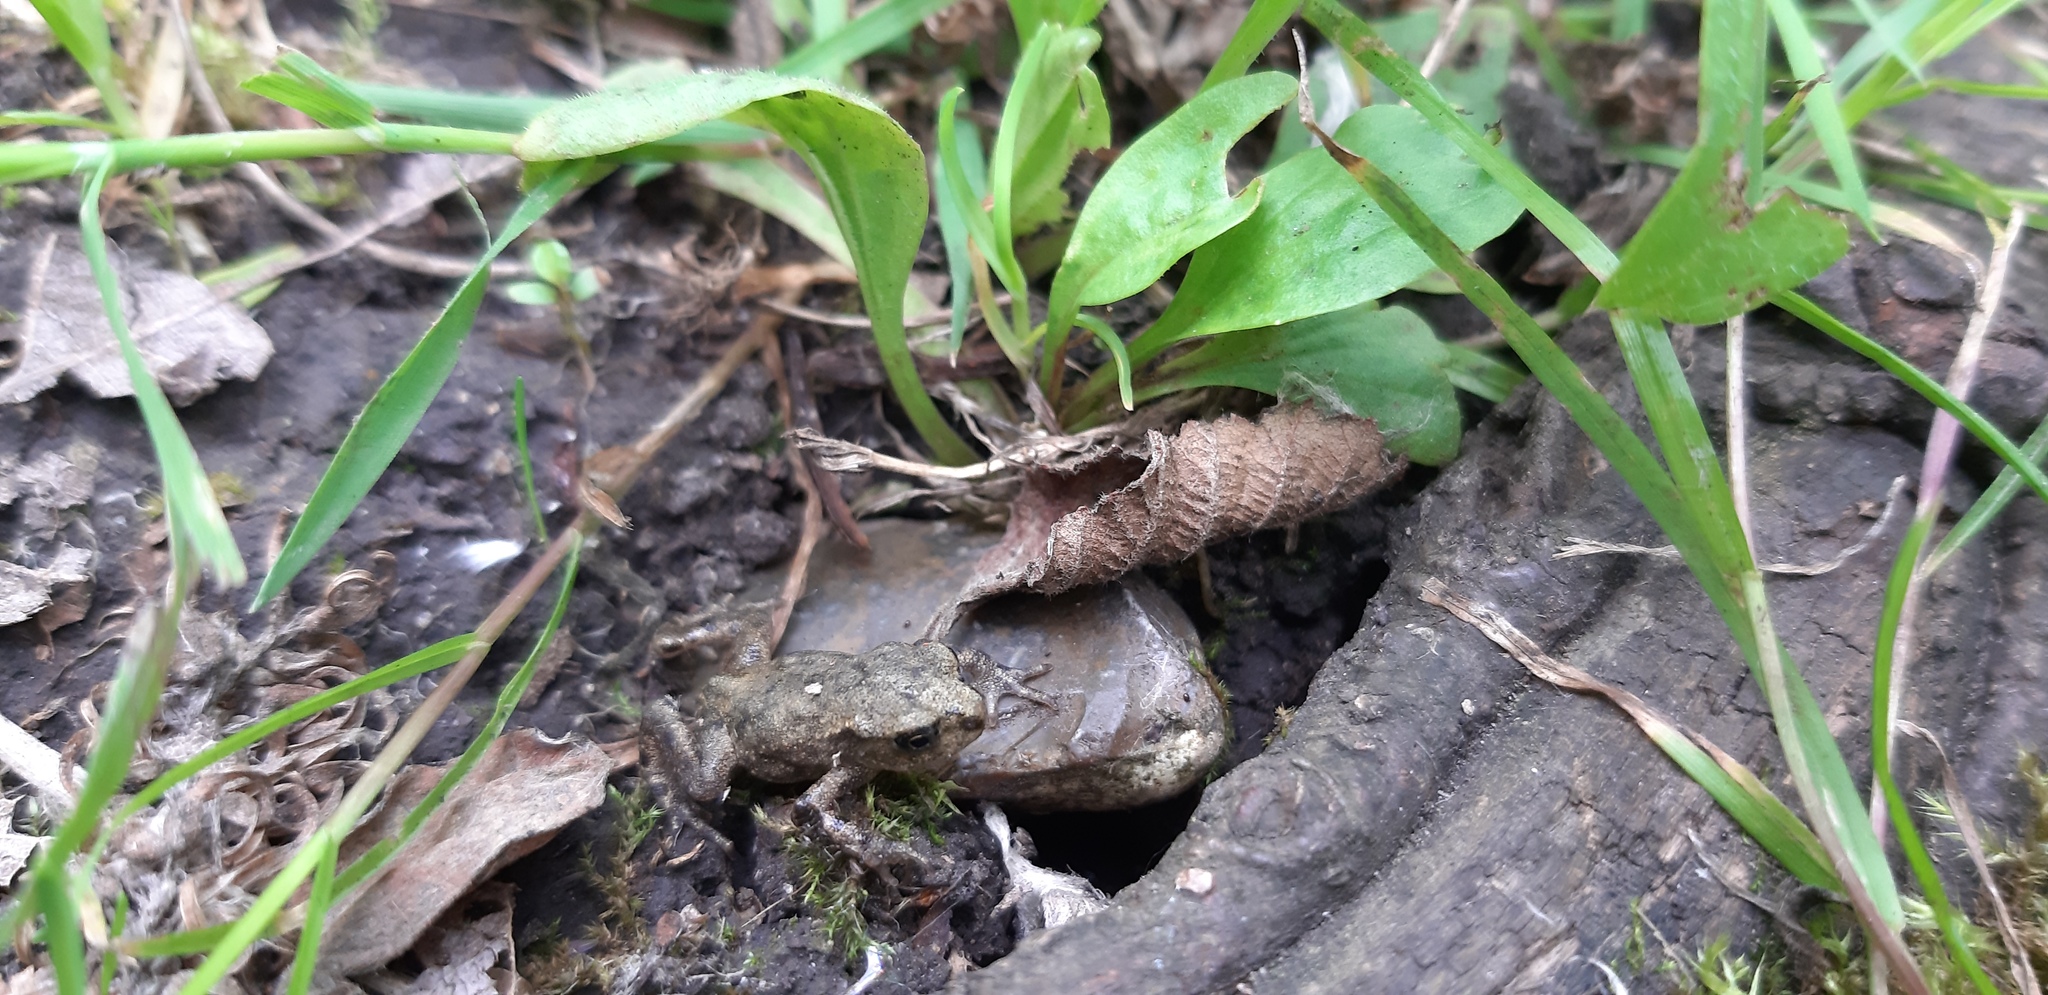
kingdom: Animalia
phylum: Chordata
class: Amphibia
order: Anura
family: Bufonidae
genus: Bufo
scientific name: Bufo bufo
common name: Common toad
